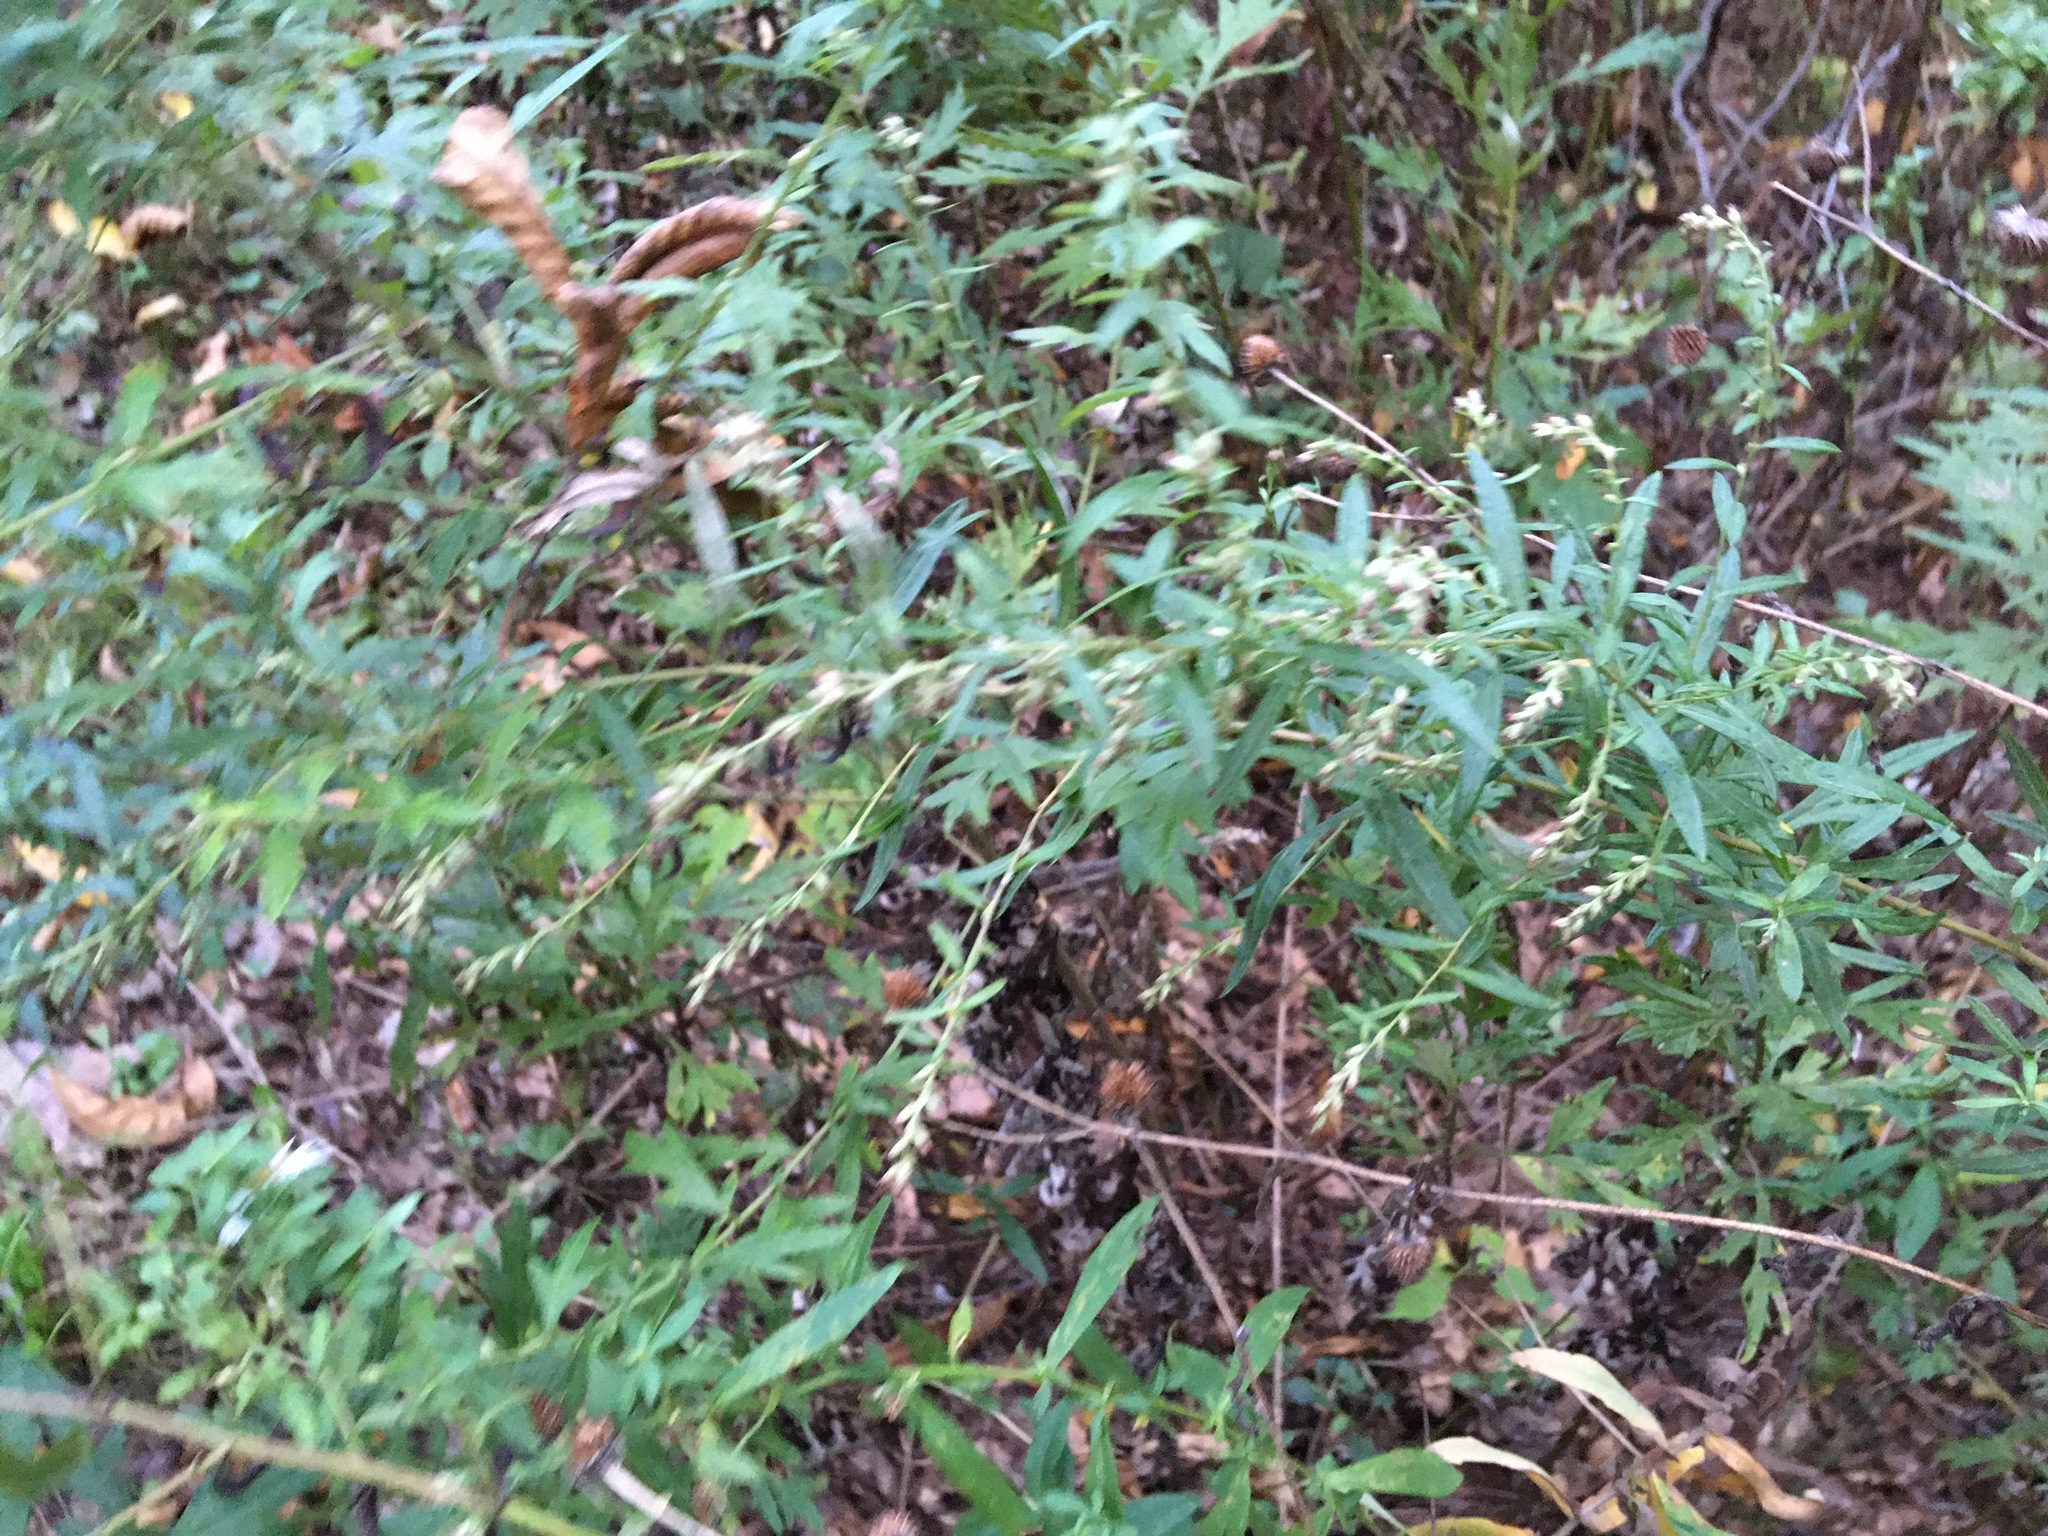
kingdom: Plantae
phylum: Tracheophyta
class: Magnoliopsida
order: Asterales
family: Asteraceae
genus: Artemisia
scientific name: Artemisia vulgaris
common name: Mugwort
